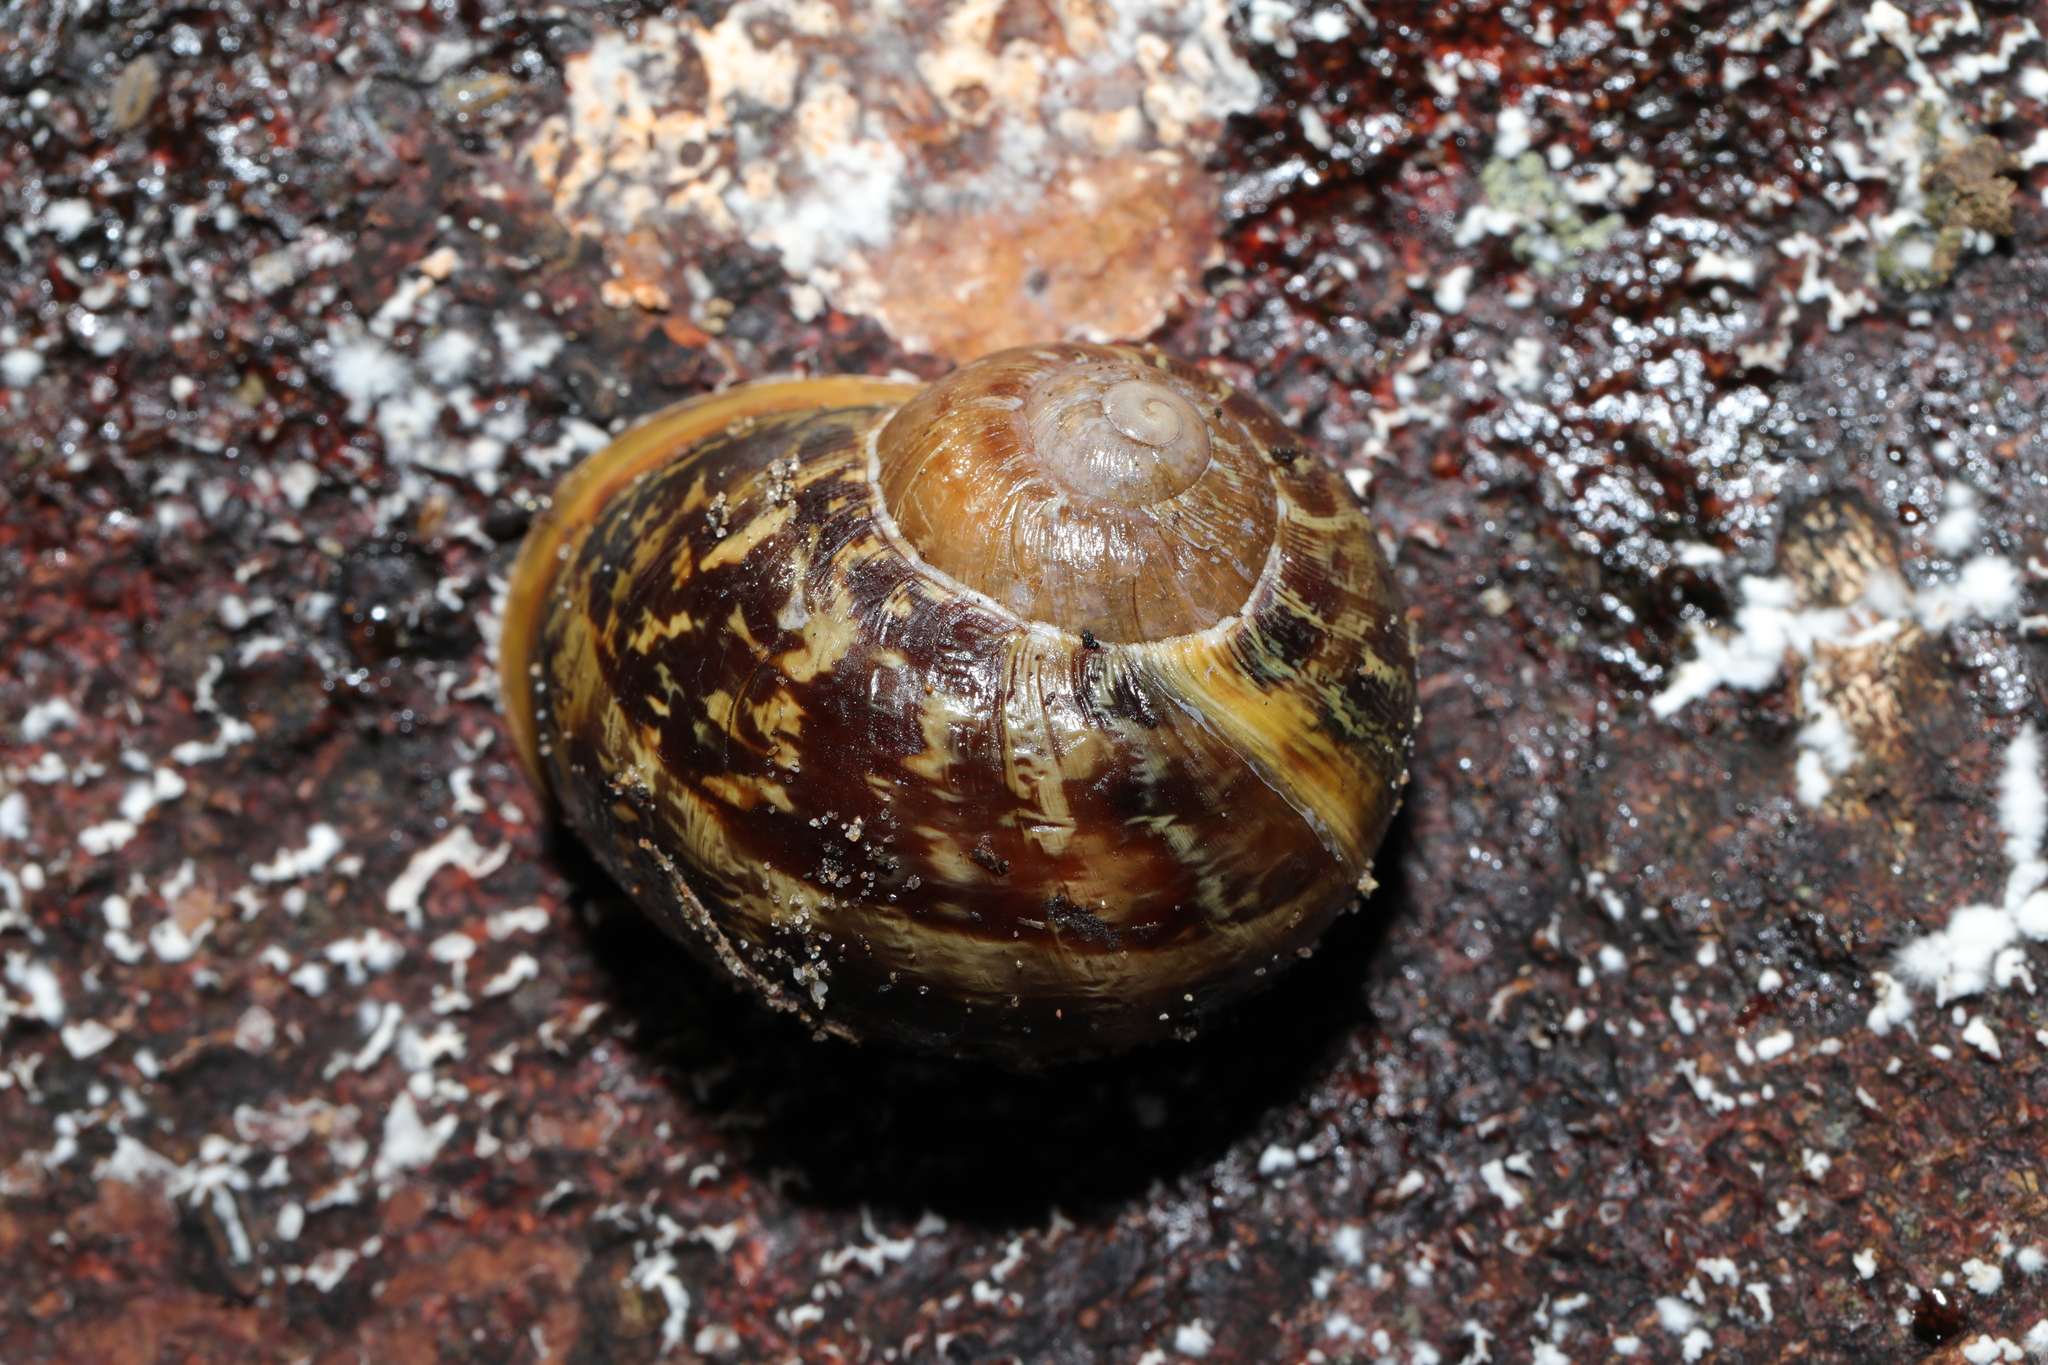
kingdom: Animalia
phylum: Mollusca
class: Gastropoda
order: Stylommatophora
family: Helicidae
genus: Cornu
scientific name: Cornu aspersum
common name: Brown garden snail
